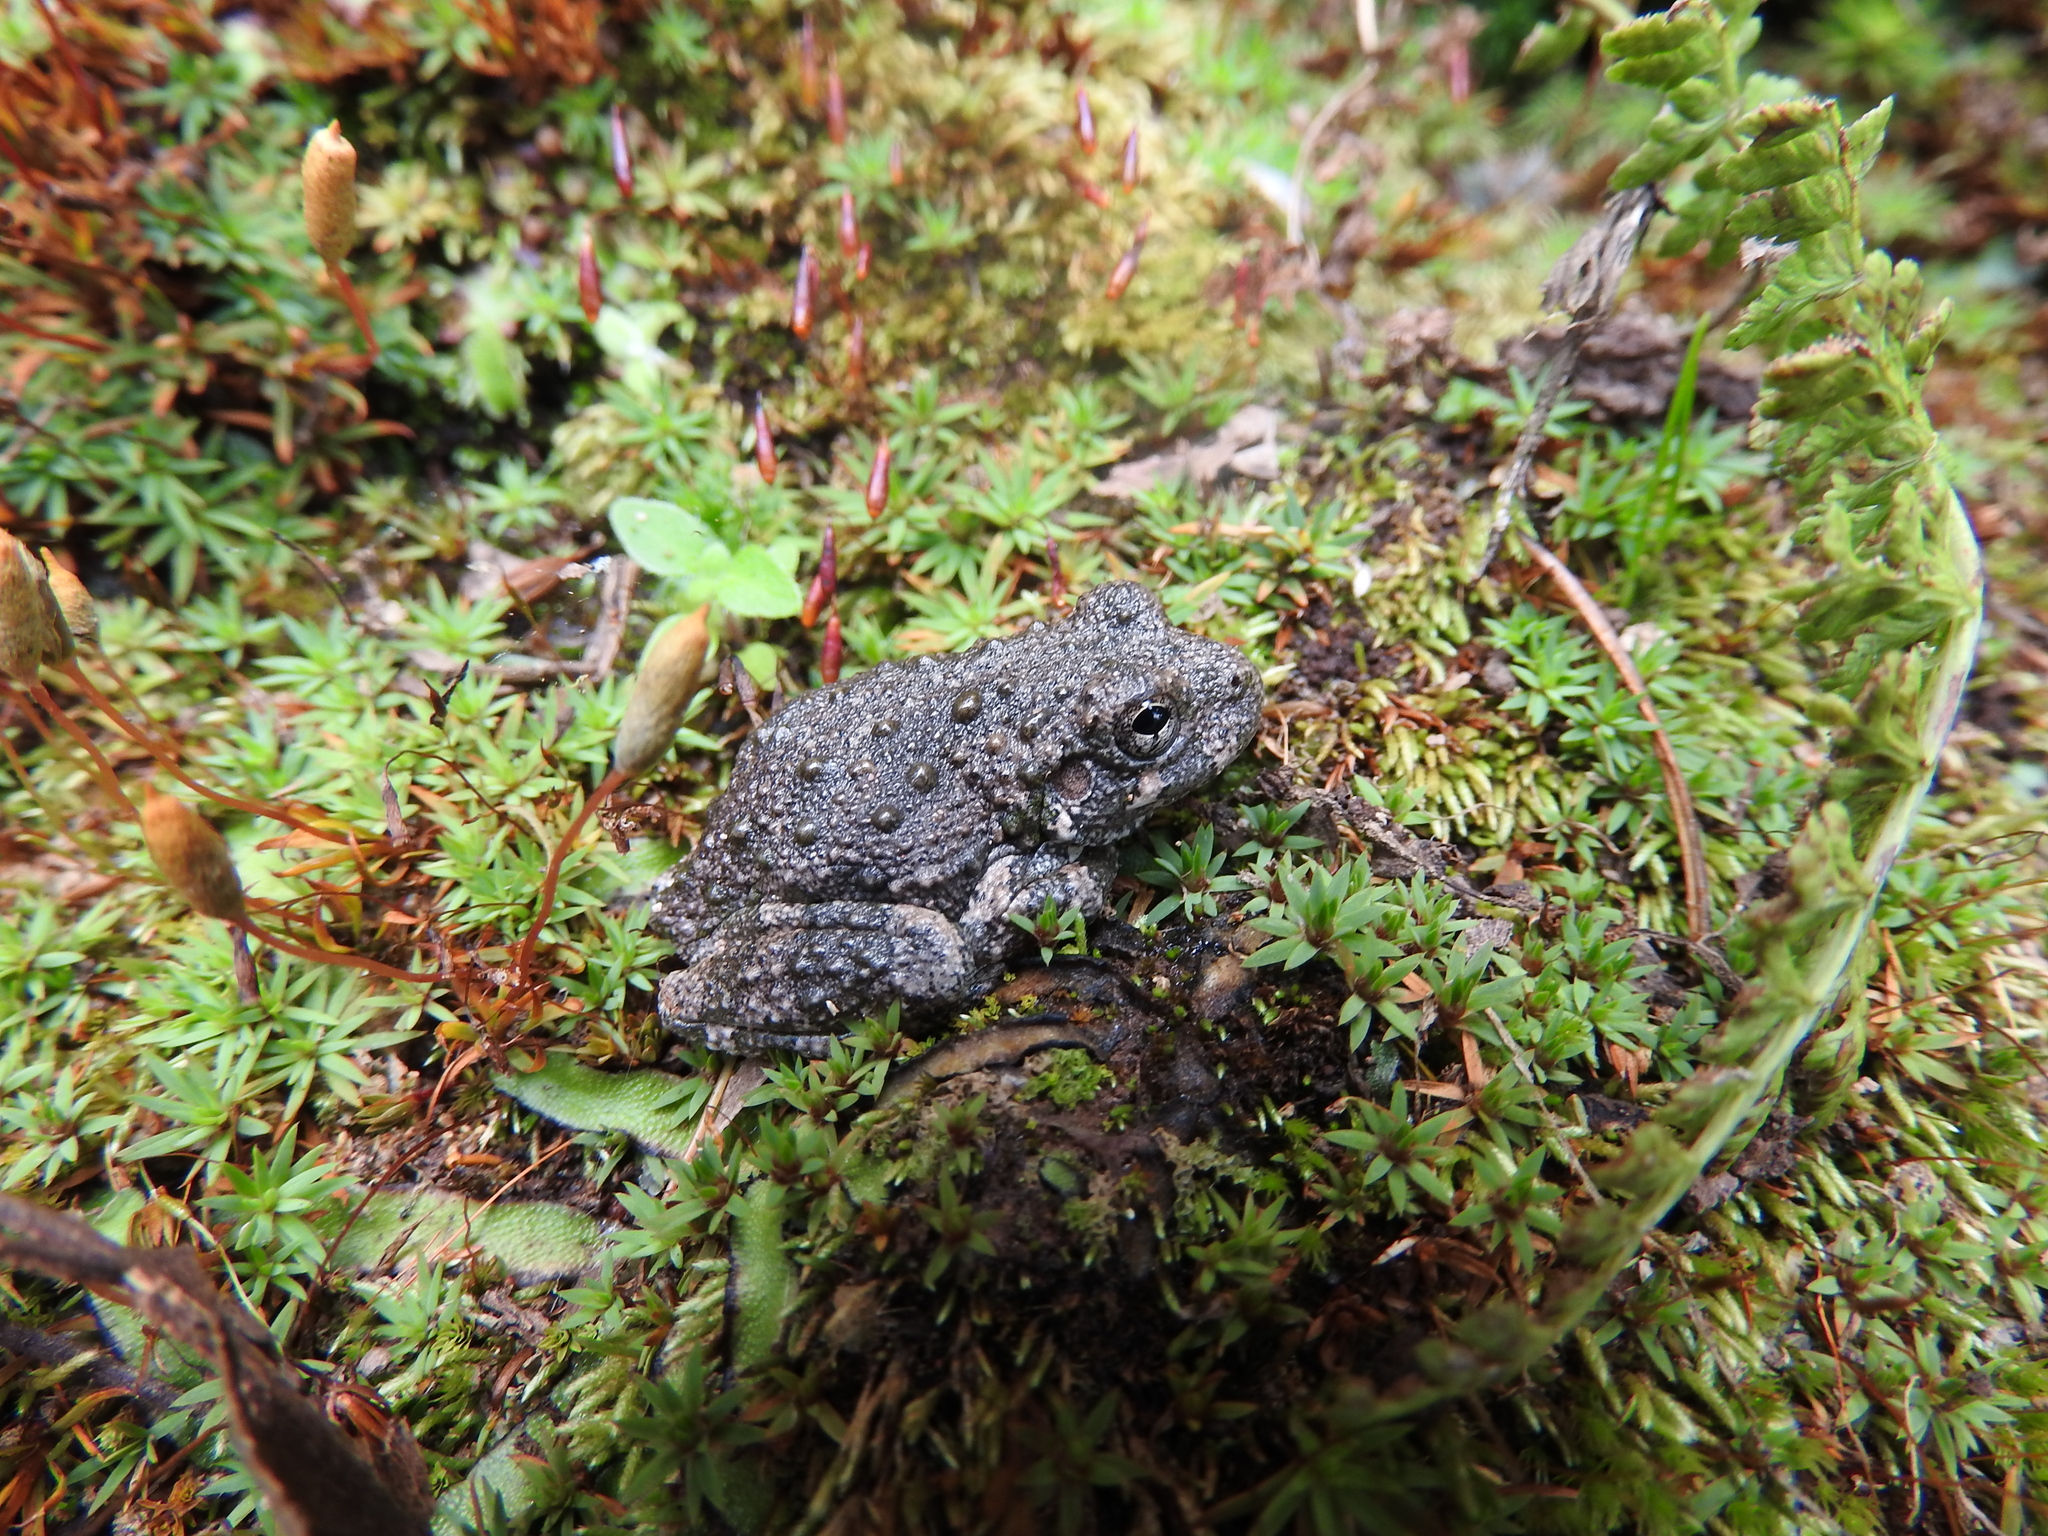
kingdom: Animalia
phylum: Chordata
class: Amphibia
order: Anura
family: Hylidae
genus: Dryophytes
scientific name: Dryophytes arenicolor
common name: Canyon treefrog
